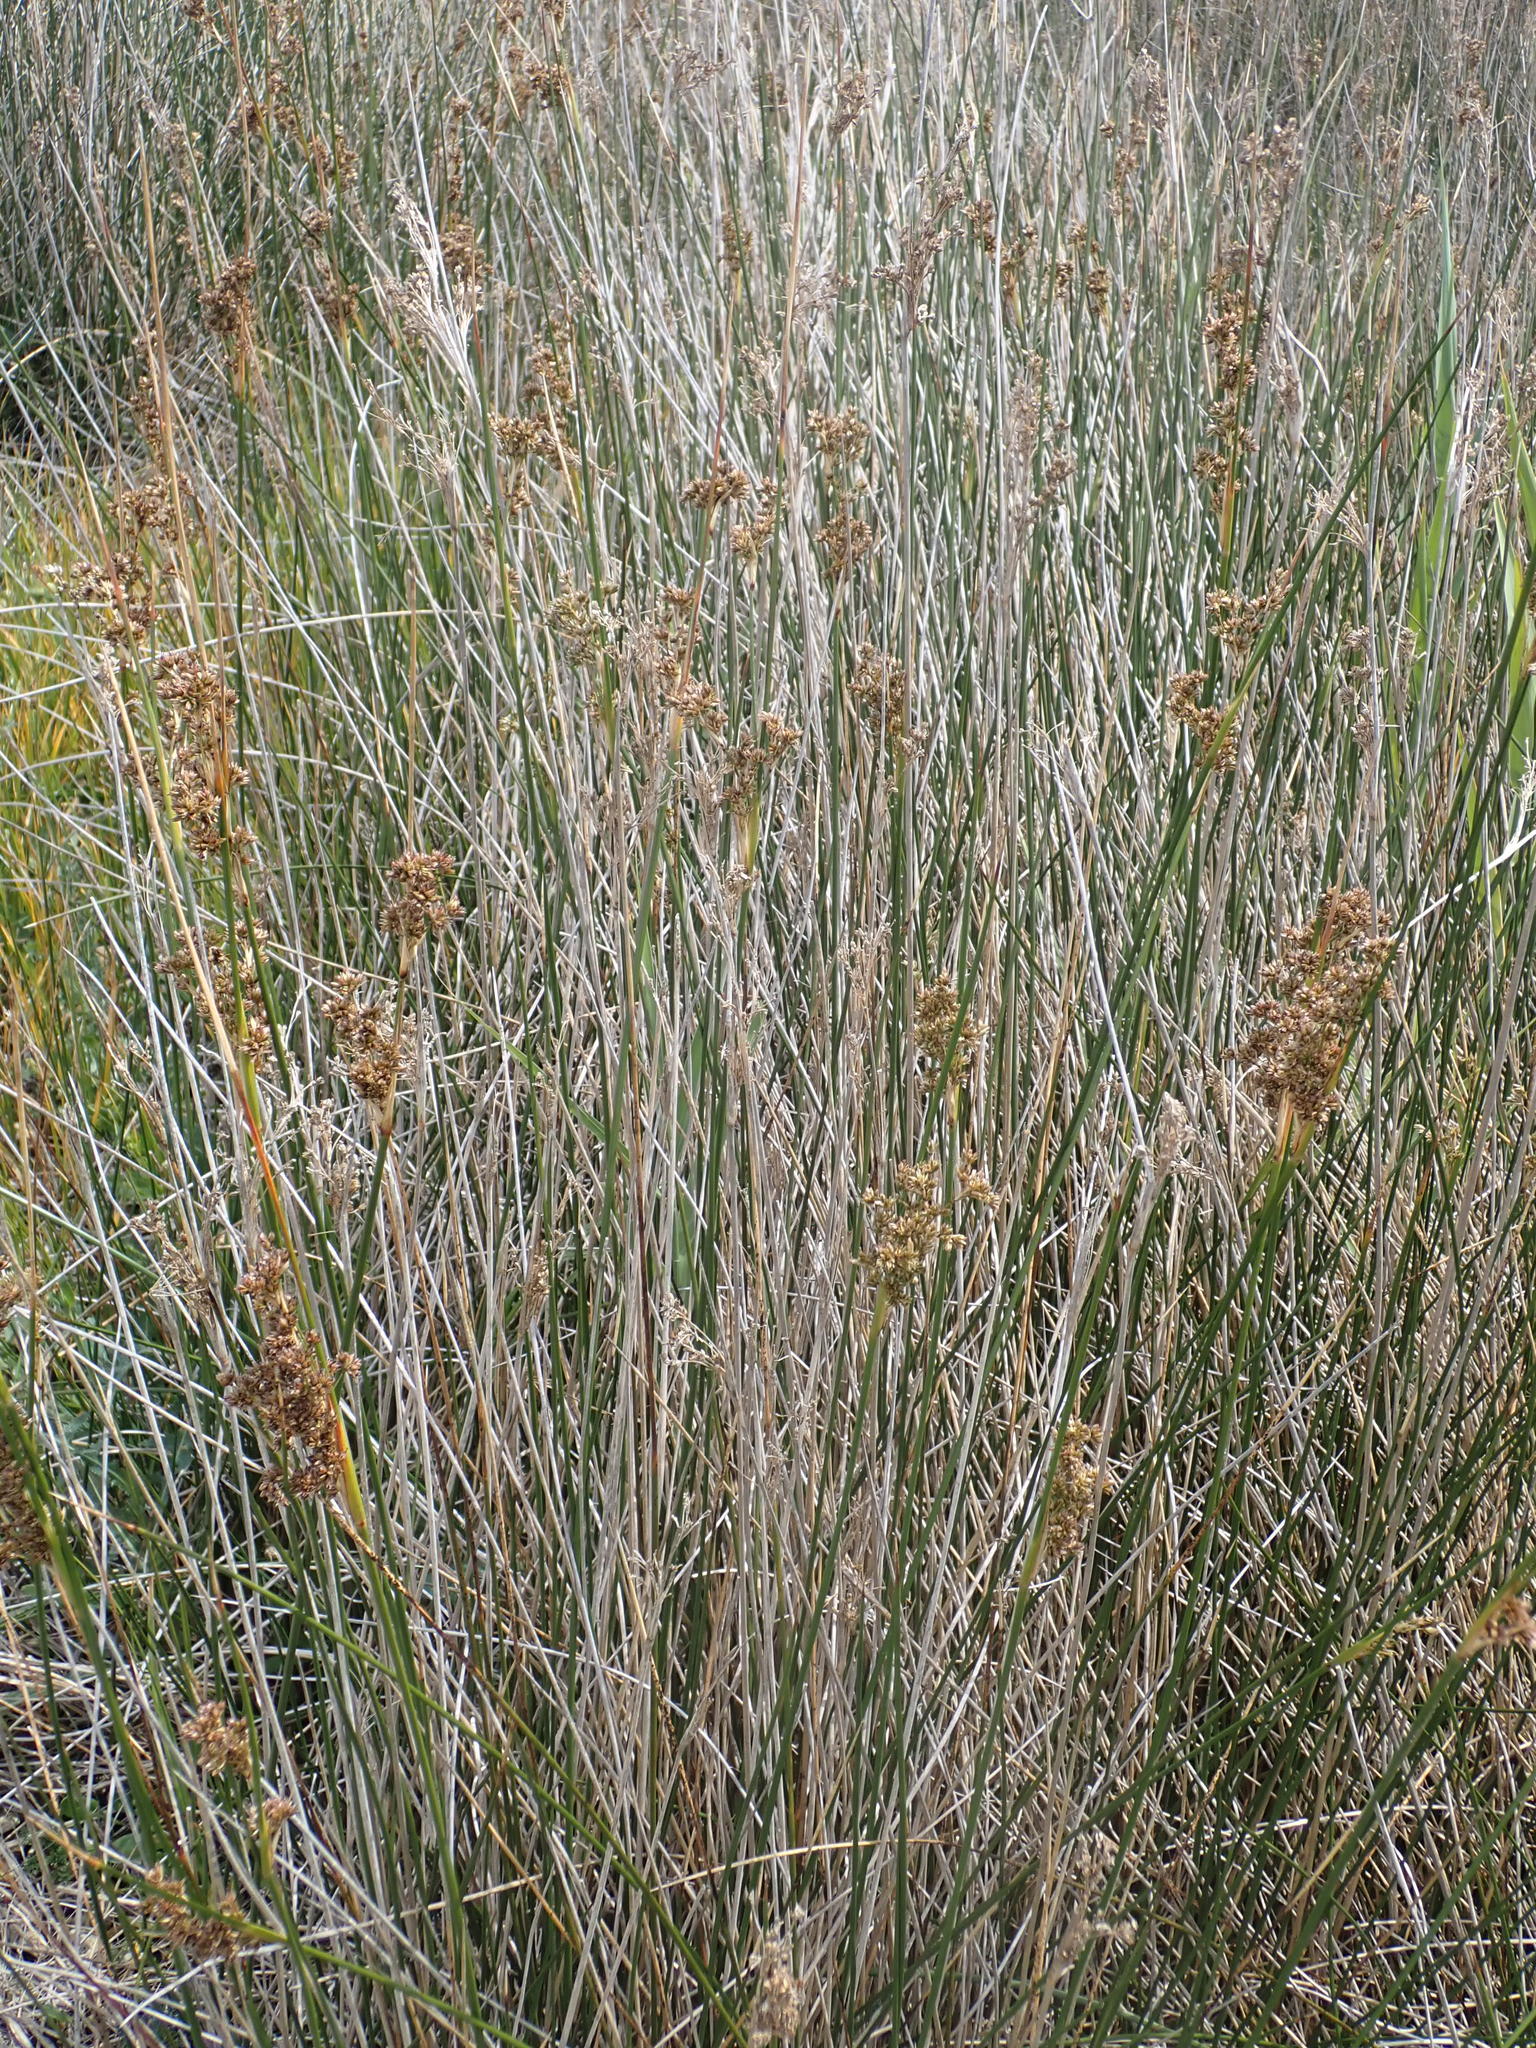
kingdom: Plantae
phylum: Tracheophyta
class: Liliopsida
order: Poales
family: Juncaceae
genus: Juncus
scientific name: Juncus maritimus
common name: Sea rush
